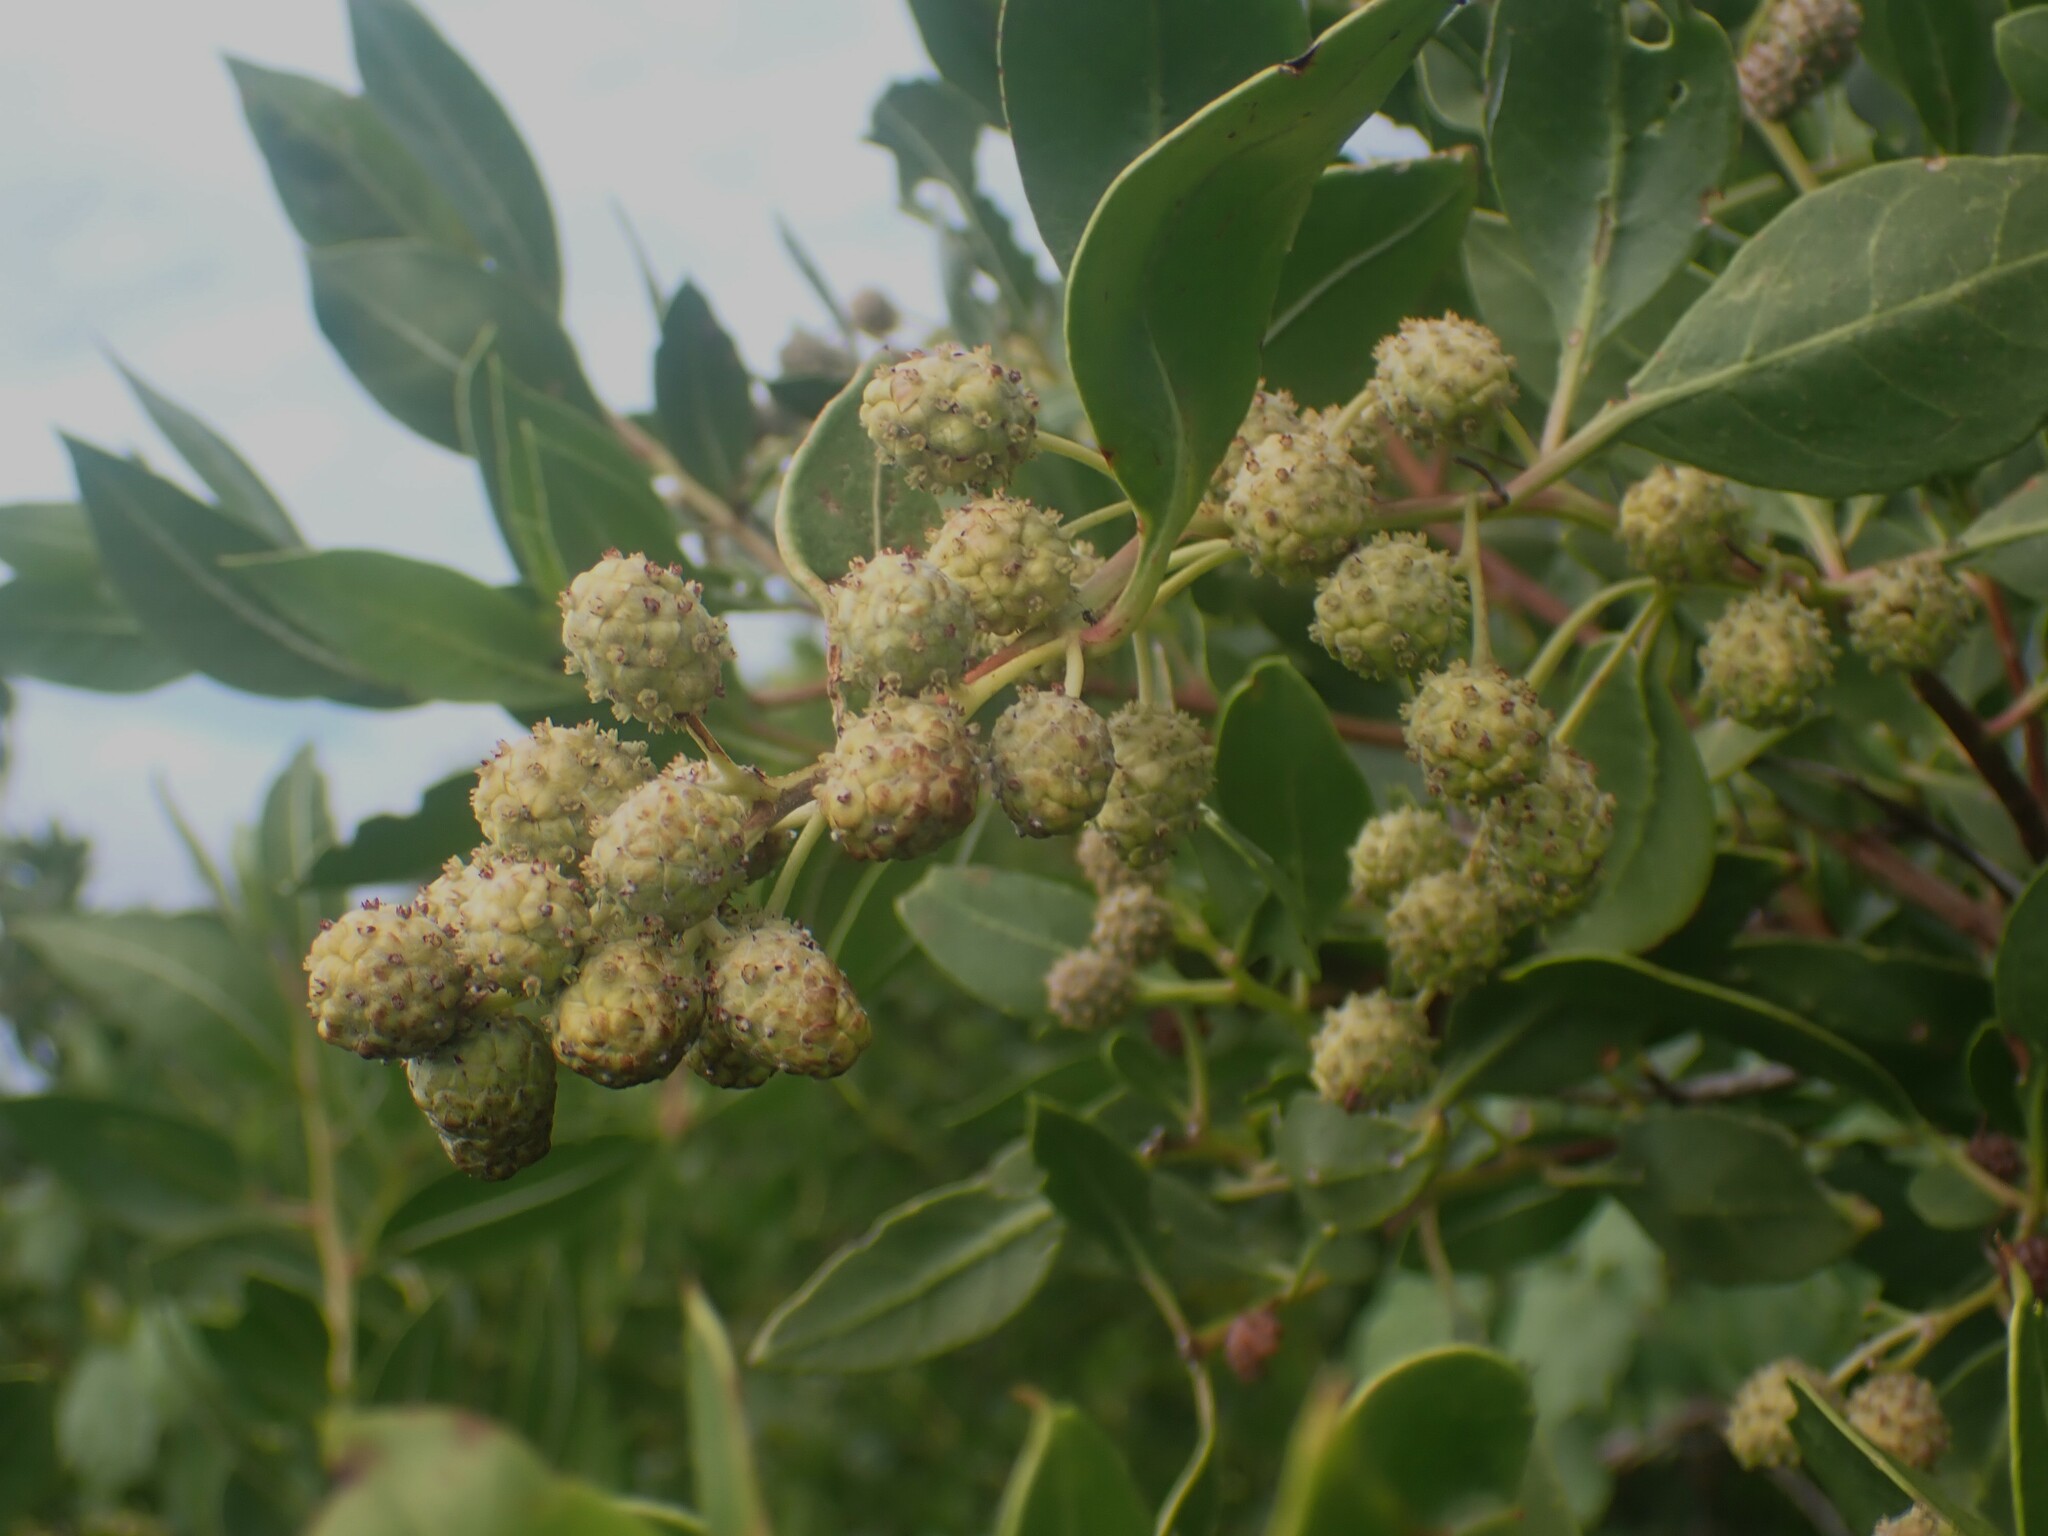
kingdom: Plantae
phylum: Tracheophyta
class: Magnoliopsida
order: Myrtales
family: Combretaceae
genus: Conocarpus
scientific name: Conocarpus erectus
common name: Button mangrove
